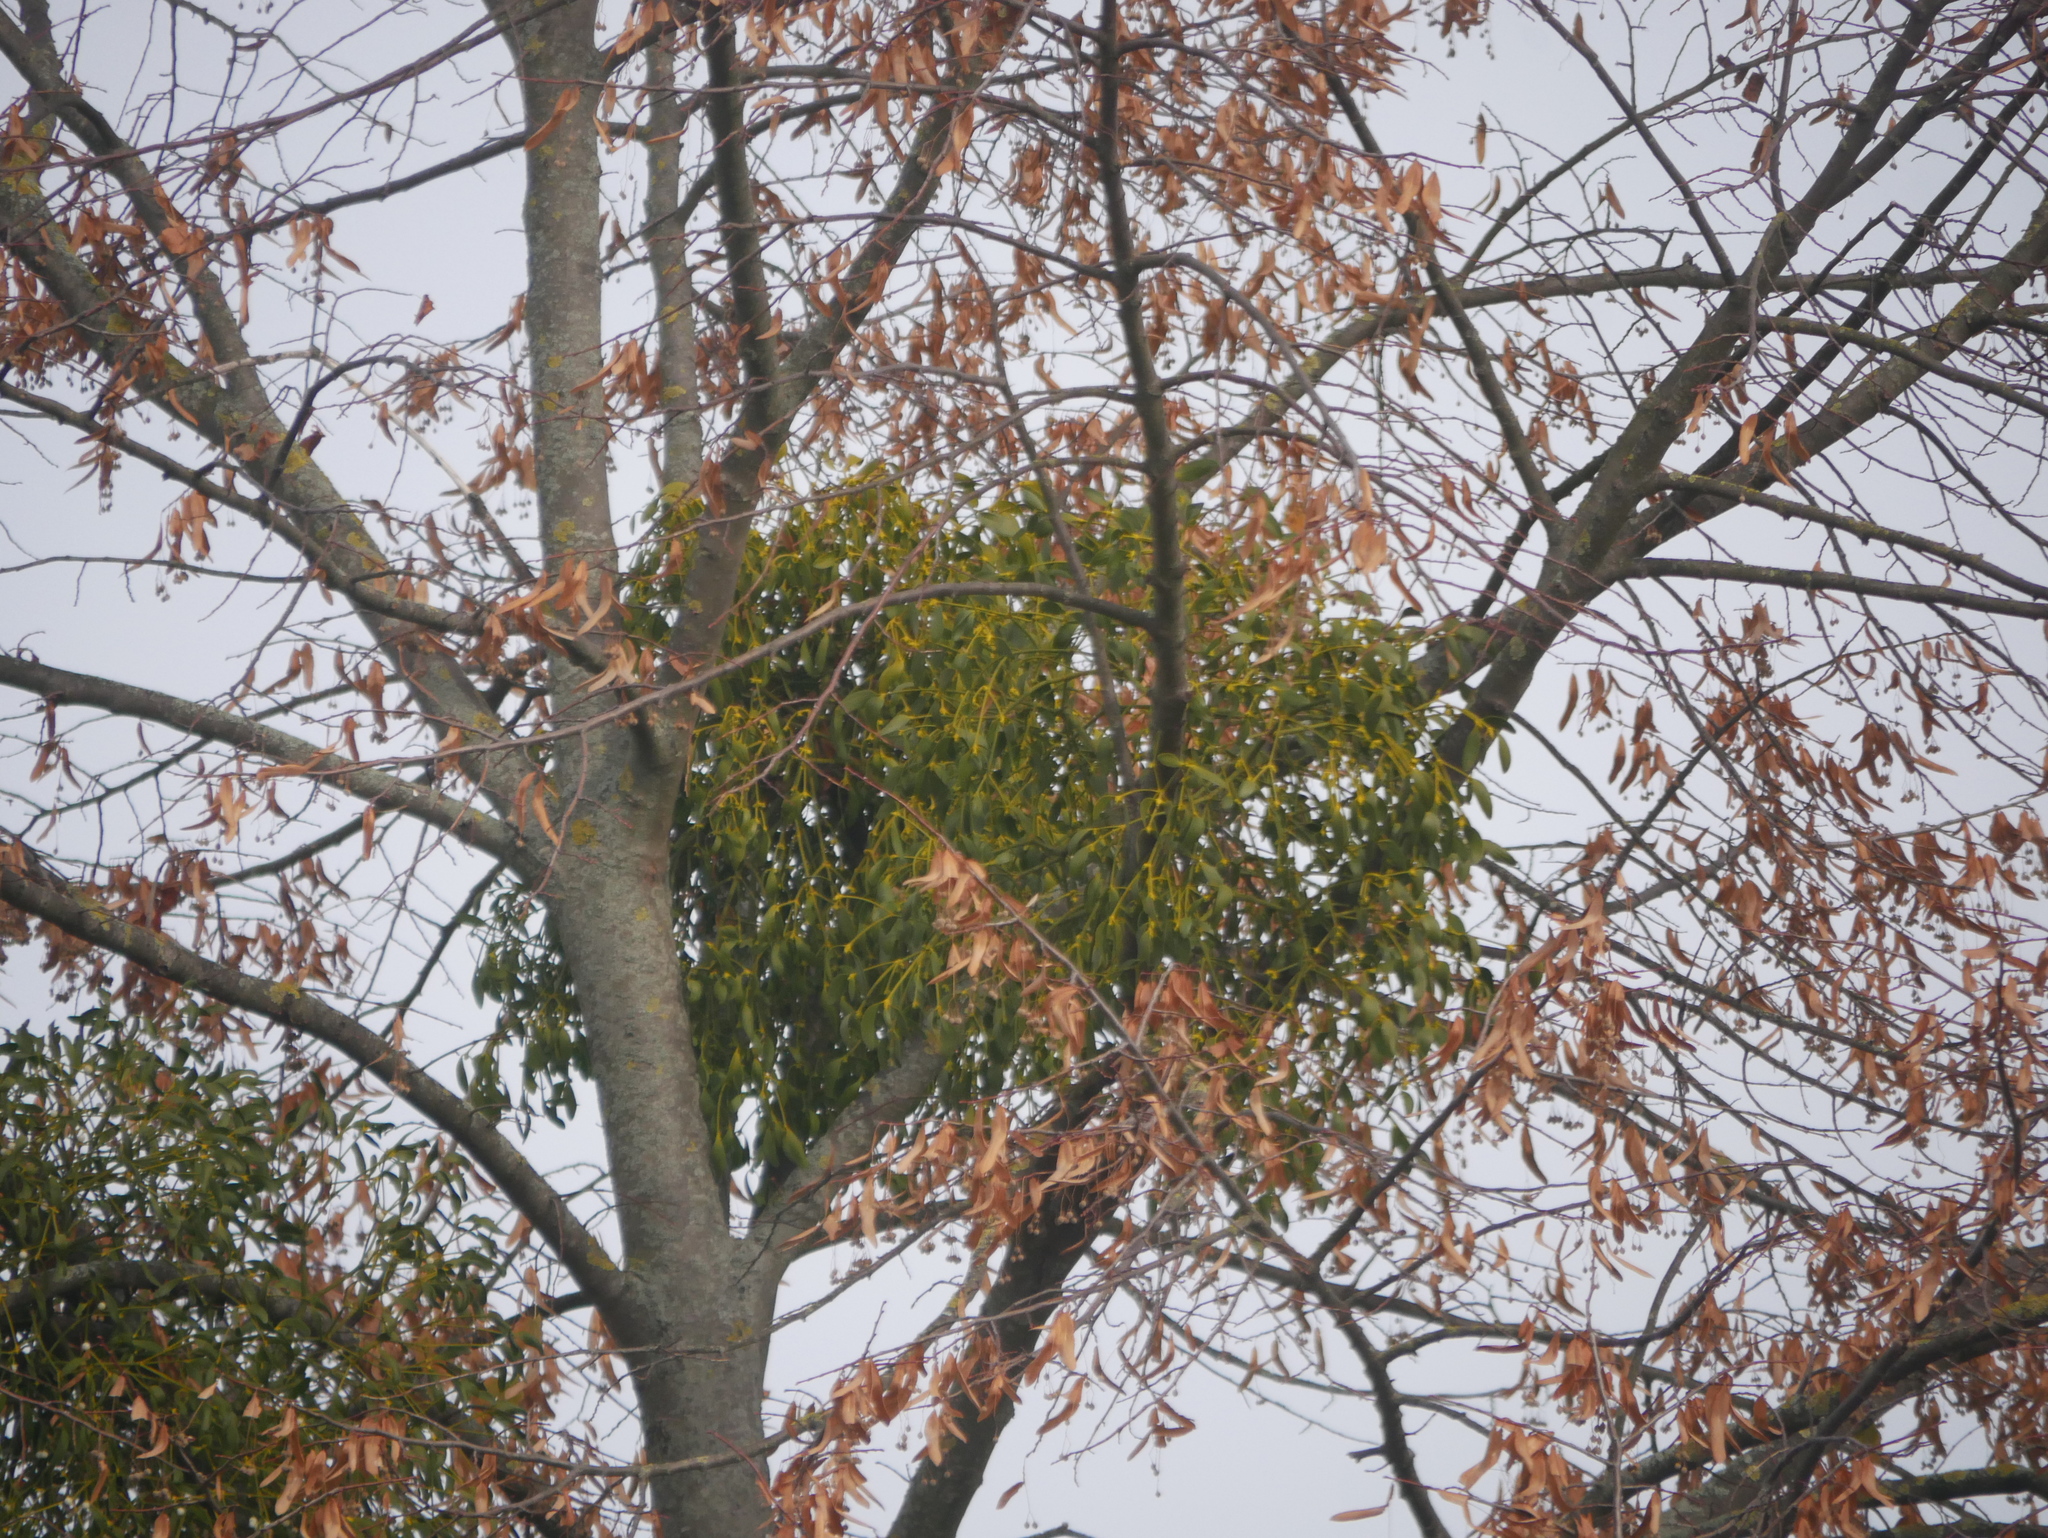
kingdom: Plantae
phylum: Tracheophyta
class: Magnoliopsida
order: Santalales
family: Viscaceae
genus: Viscum
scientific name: Viscum album
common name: Mistletoe
